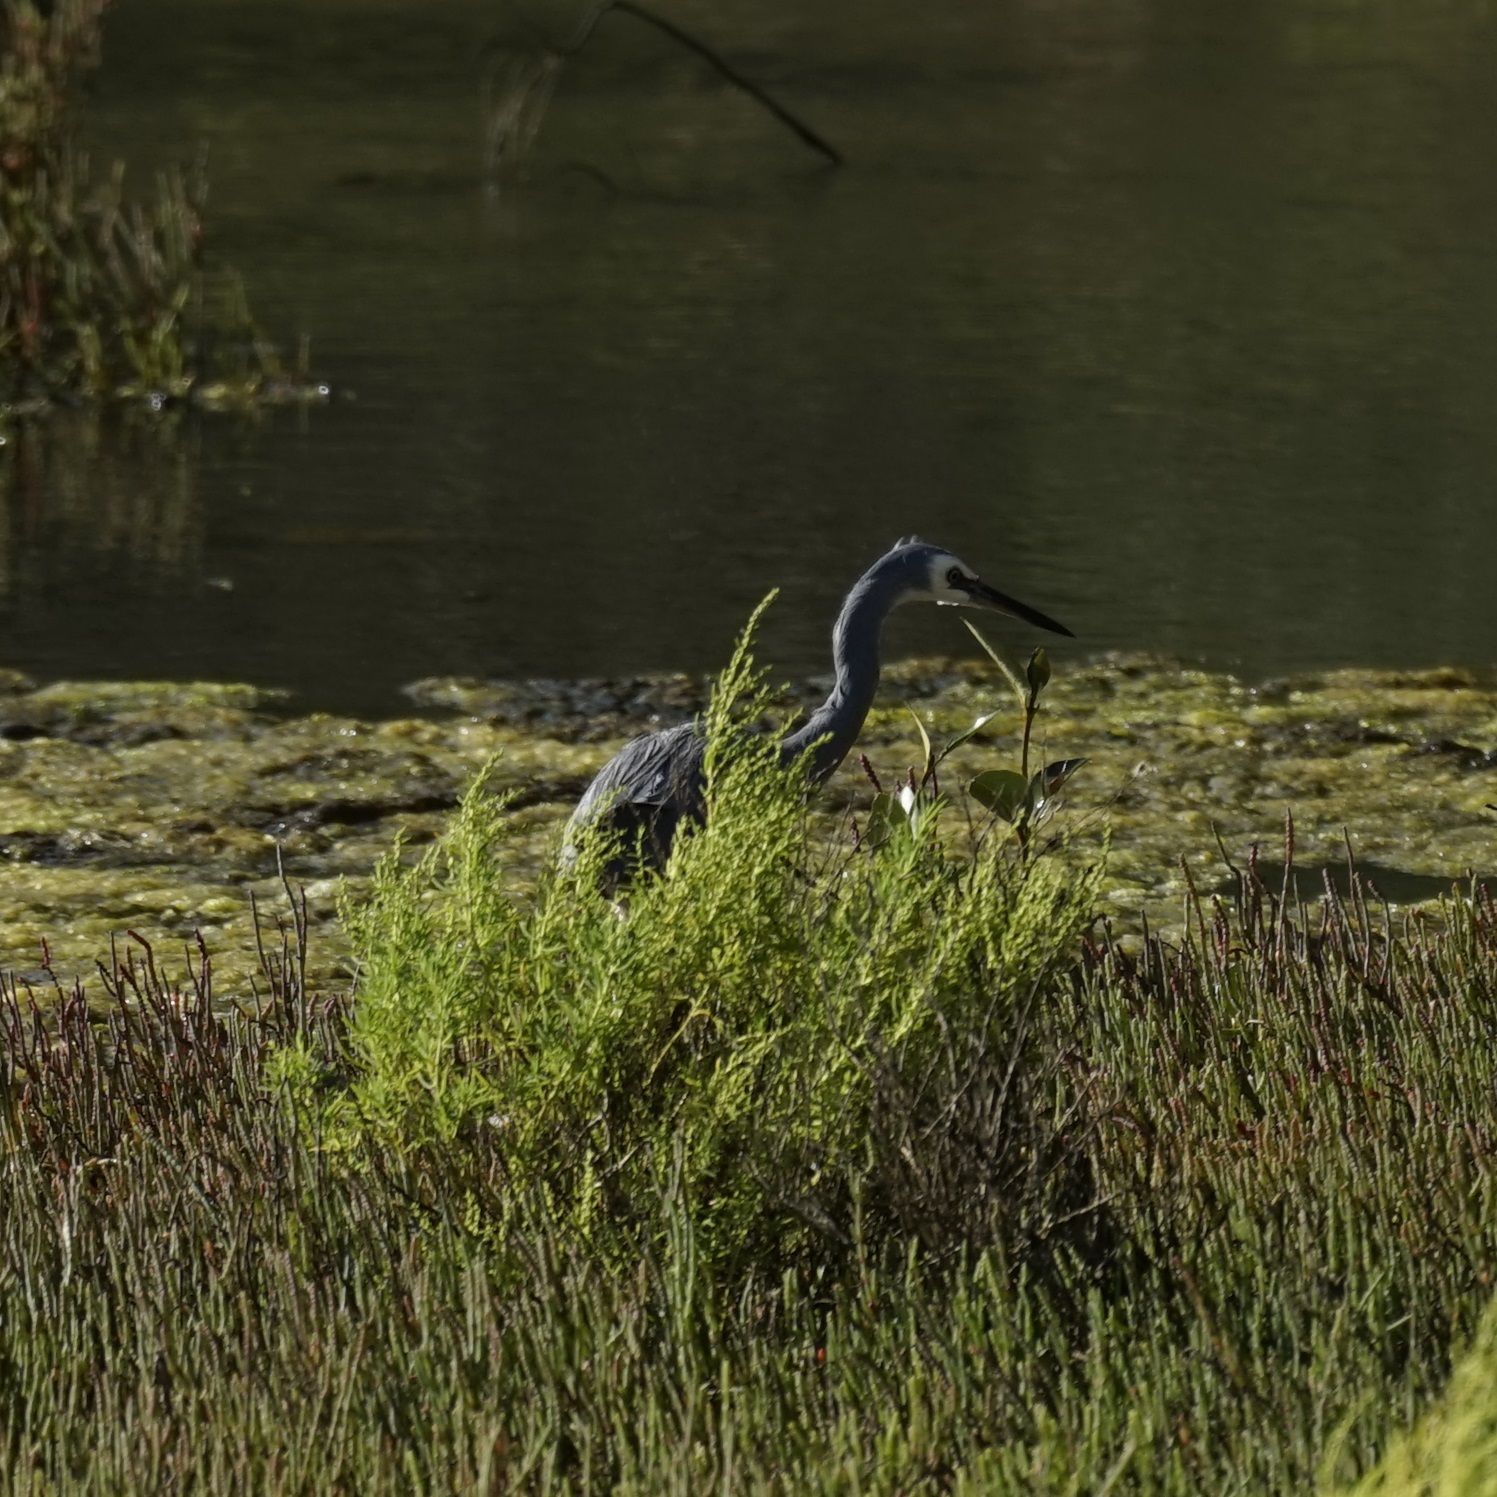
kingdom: Animalia
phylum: Chordata
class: Aves
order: Pelecaniformes
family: Ardeidae
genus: Egretta
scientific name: Egretta novaehollandiae
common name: White-faced heron
